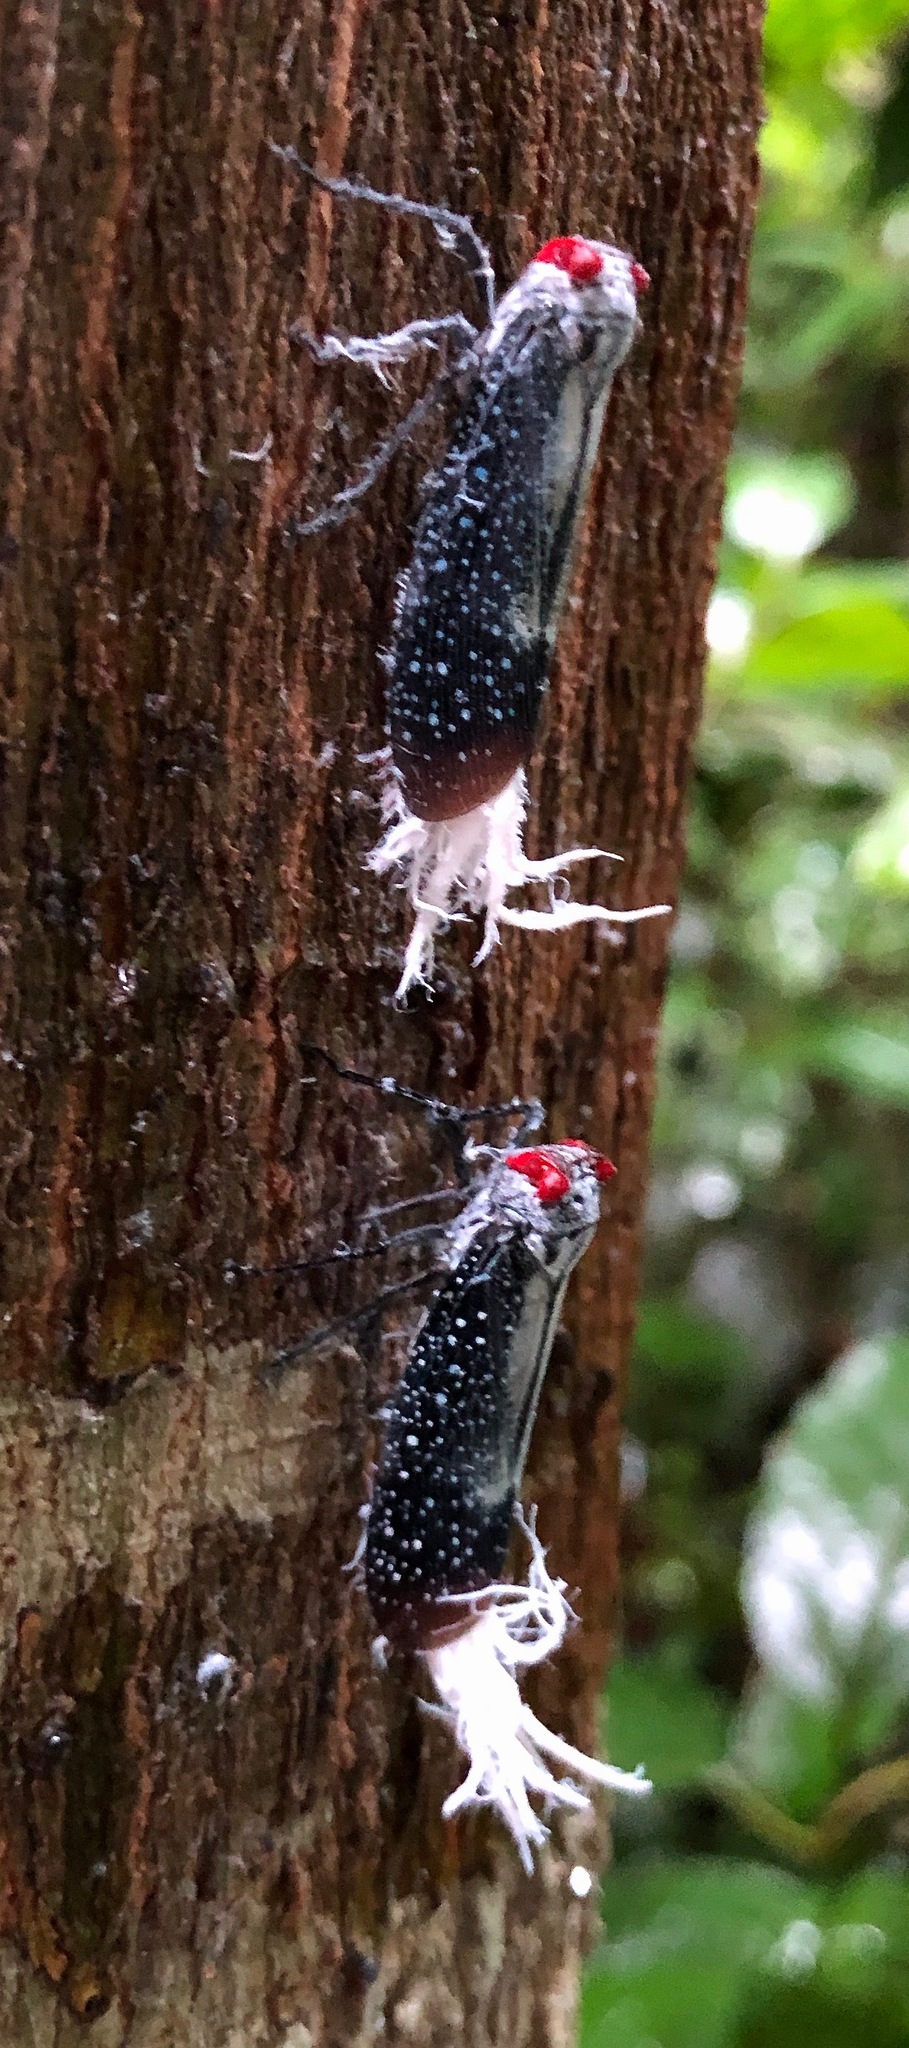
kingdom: Animalia
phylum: Arthropoda
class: Insecta
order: Hemiptera
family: Fulgoridae
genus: Lystra
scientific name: Lystra lanata
